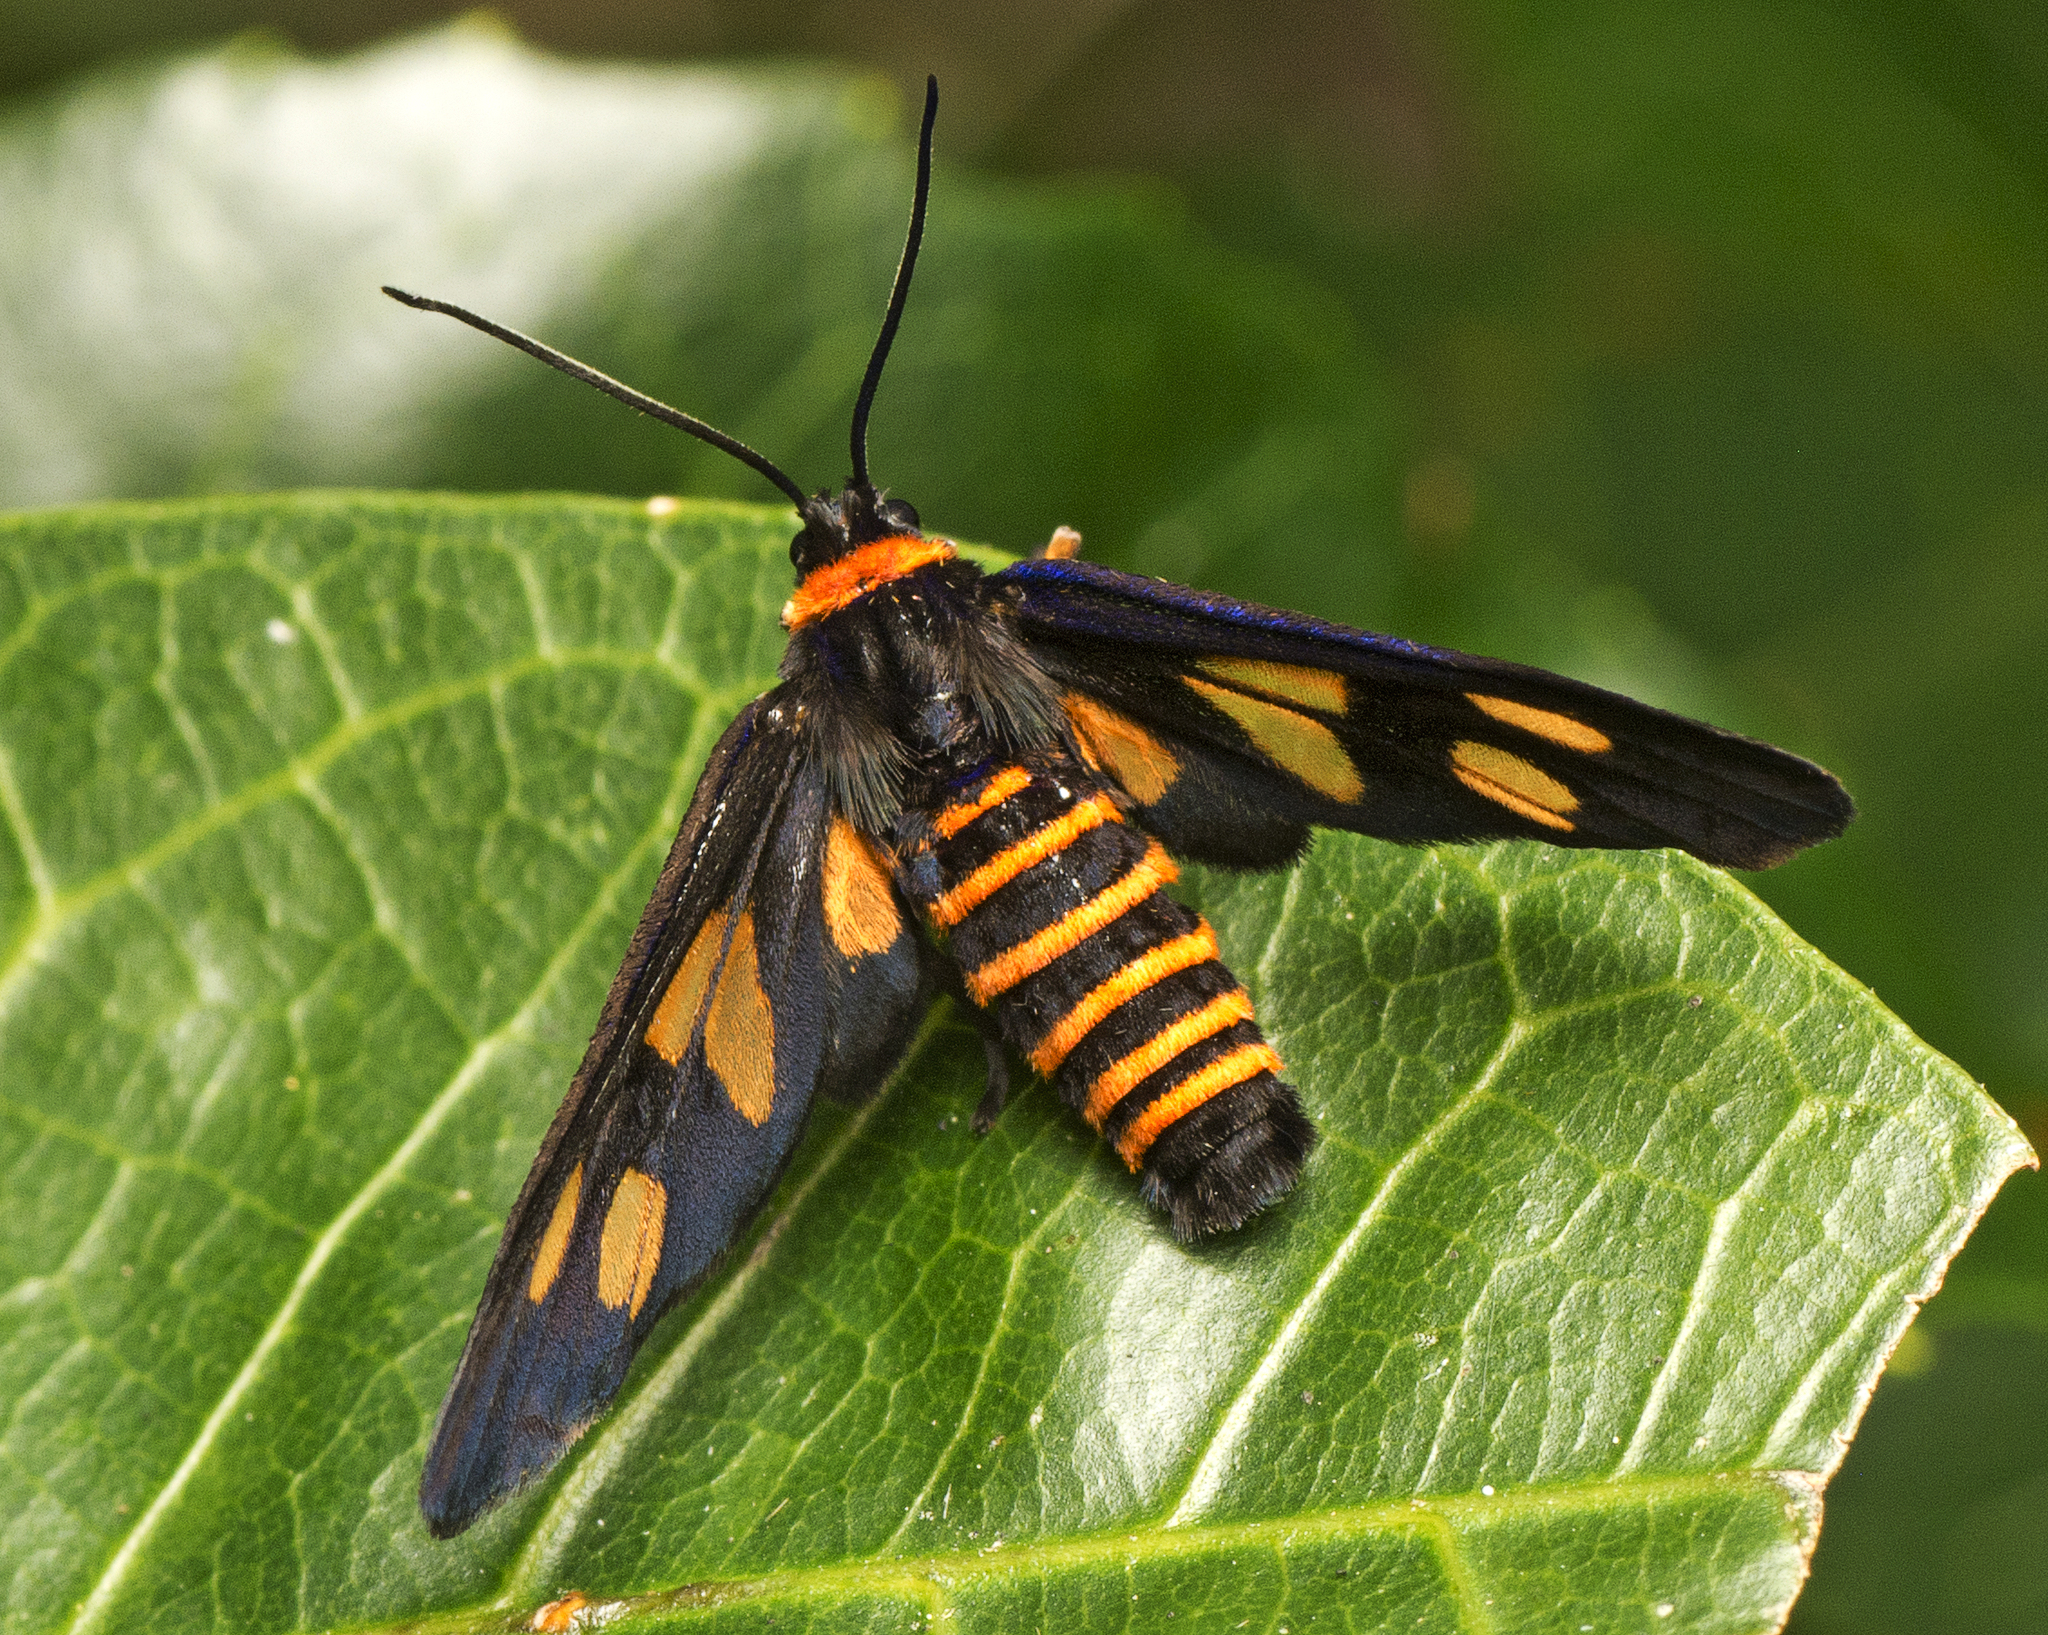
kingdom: Animalia
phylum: Arthropoda
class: Insecta
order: Lepidoptera
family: Erebidae
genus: Eressa
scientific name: Eressa angustipenna
